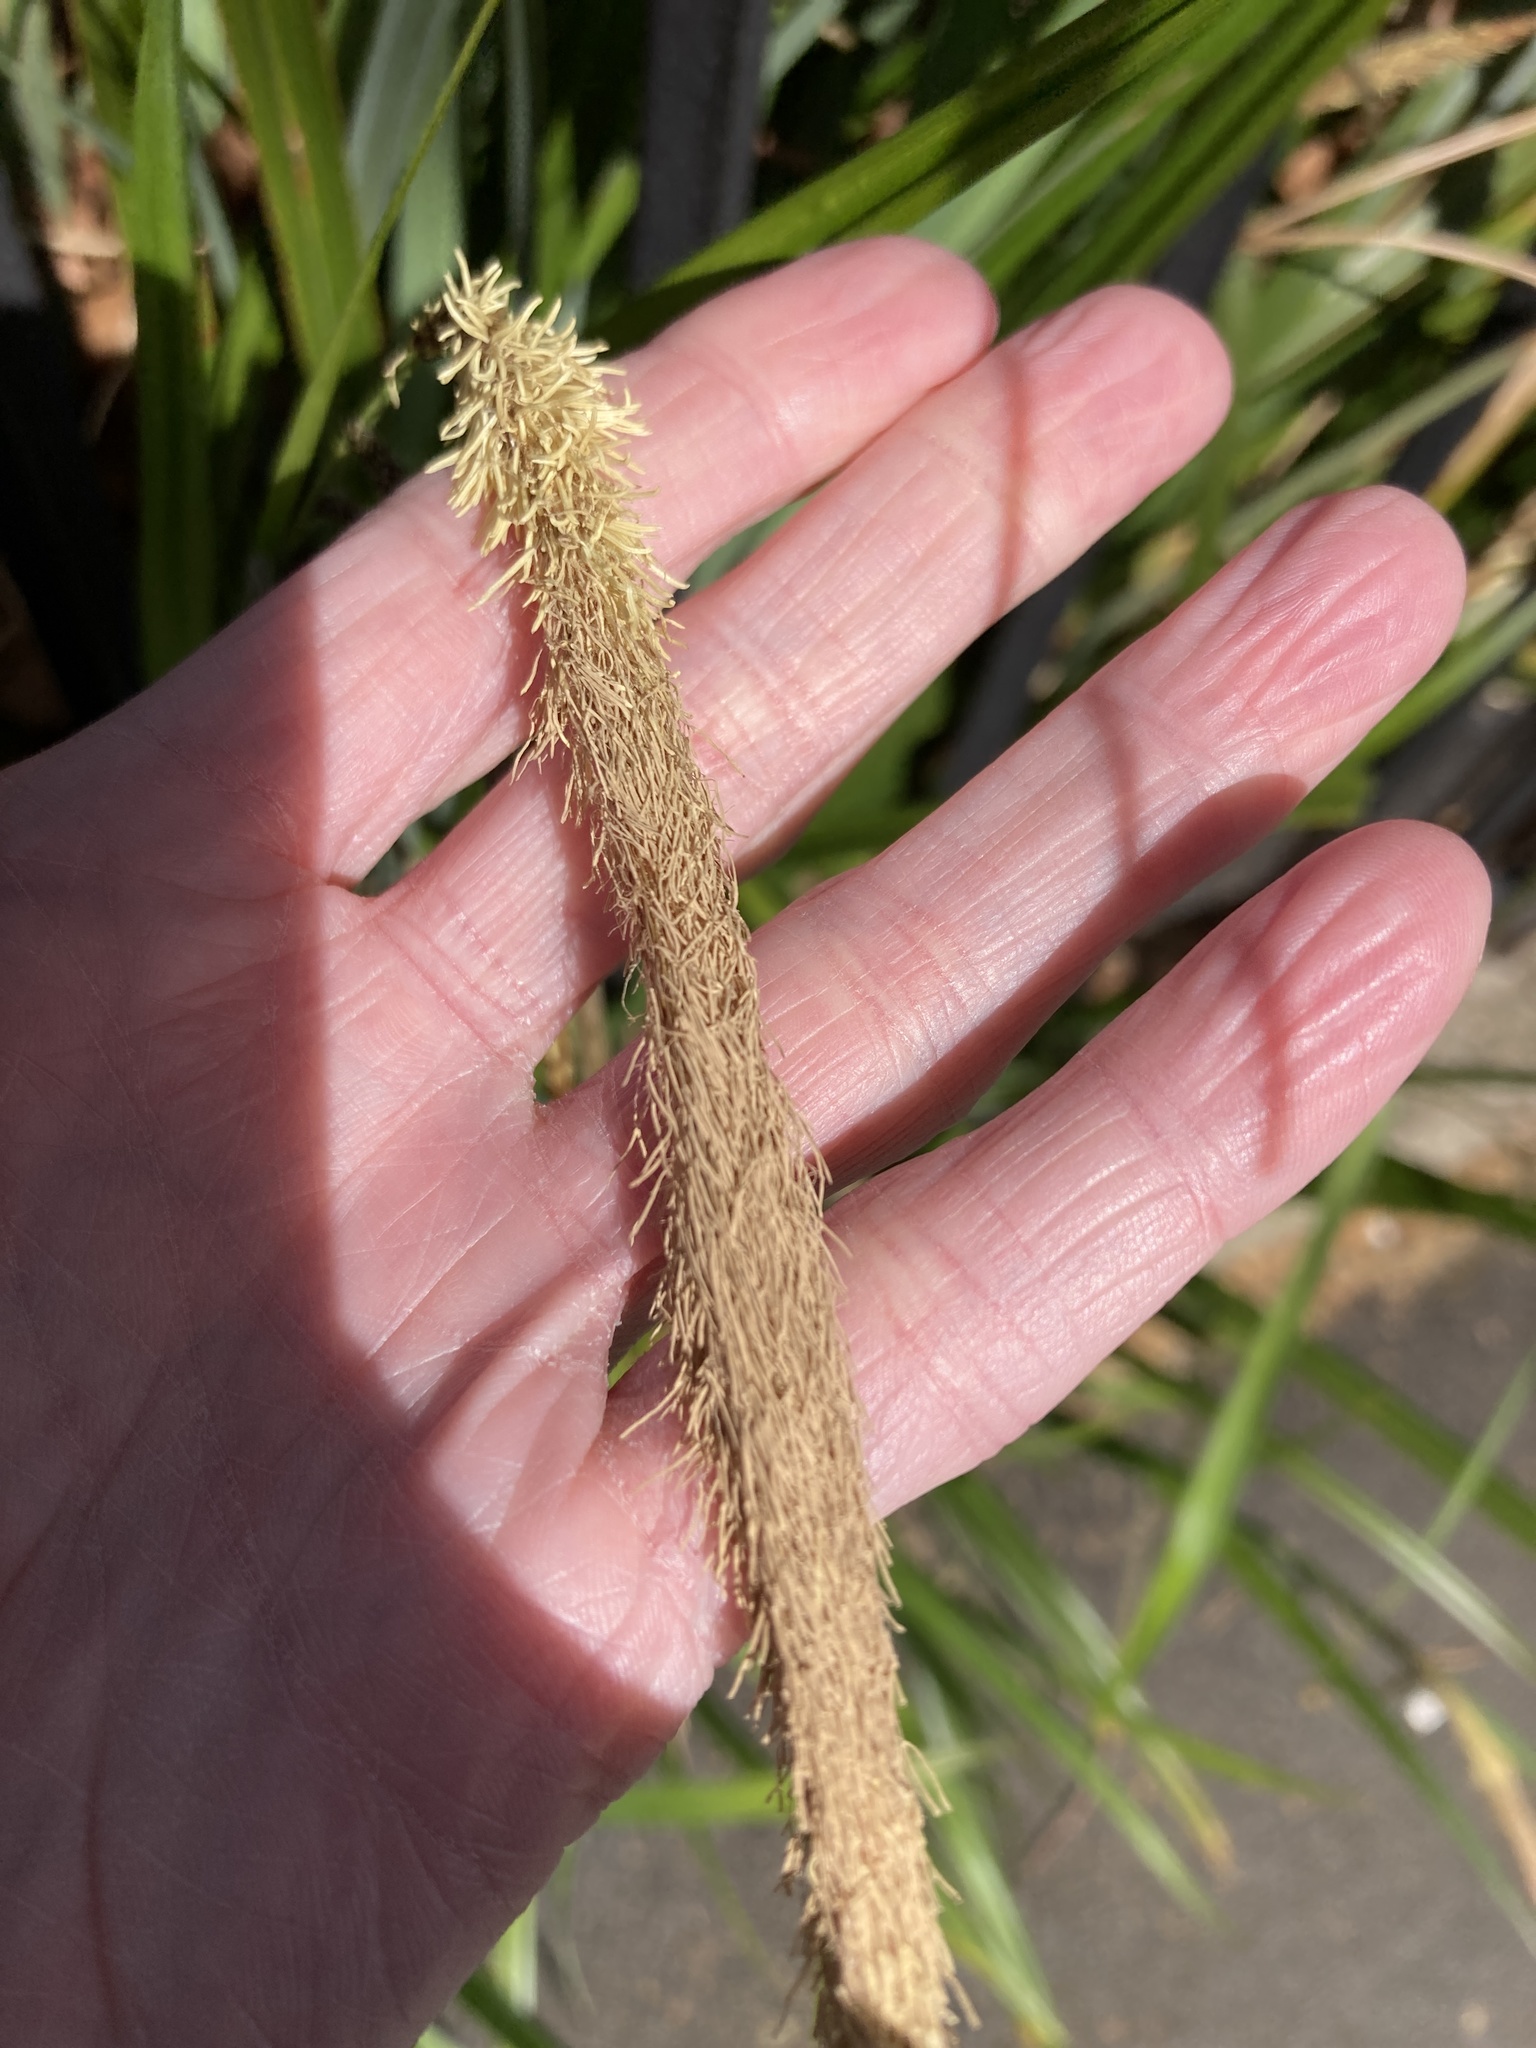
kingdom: Plantae
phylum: Tracheophyta
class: Liliopsida
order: Poales
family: Cyperaceae
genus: Carex
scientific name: Carex pendula
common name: Pendulous sedge
